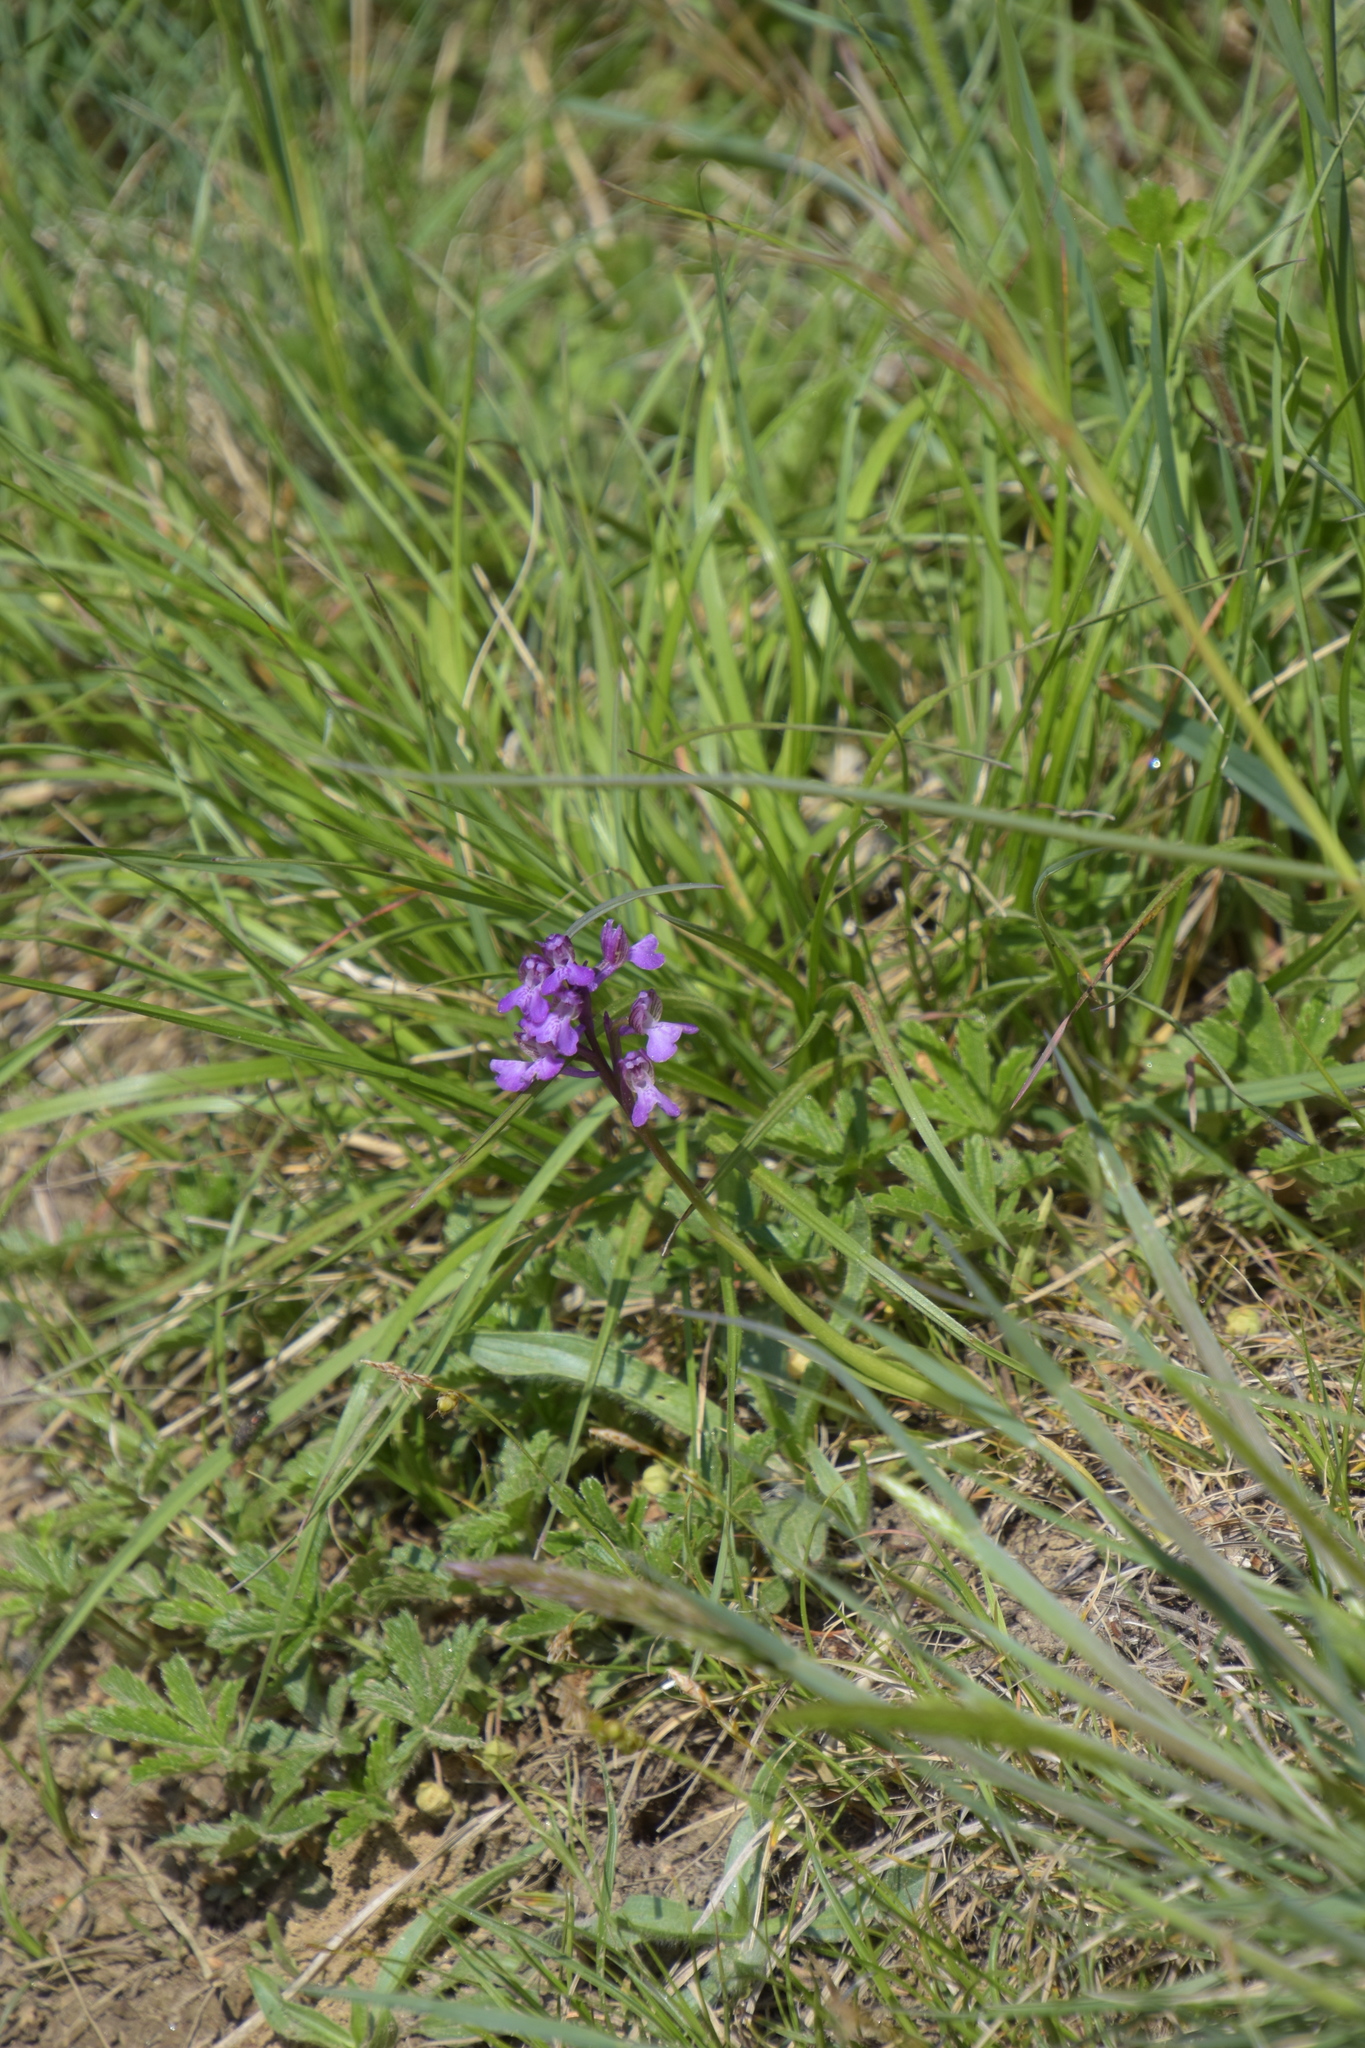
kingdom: Plantae
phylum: Tracheophyta
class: Liliopsida
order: Asparagales
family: Orchidaceae
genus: Anacamptis
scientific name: Anacamptis morio
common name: Green-winged orchid
